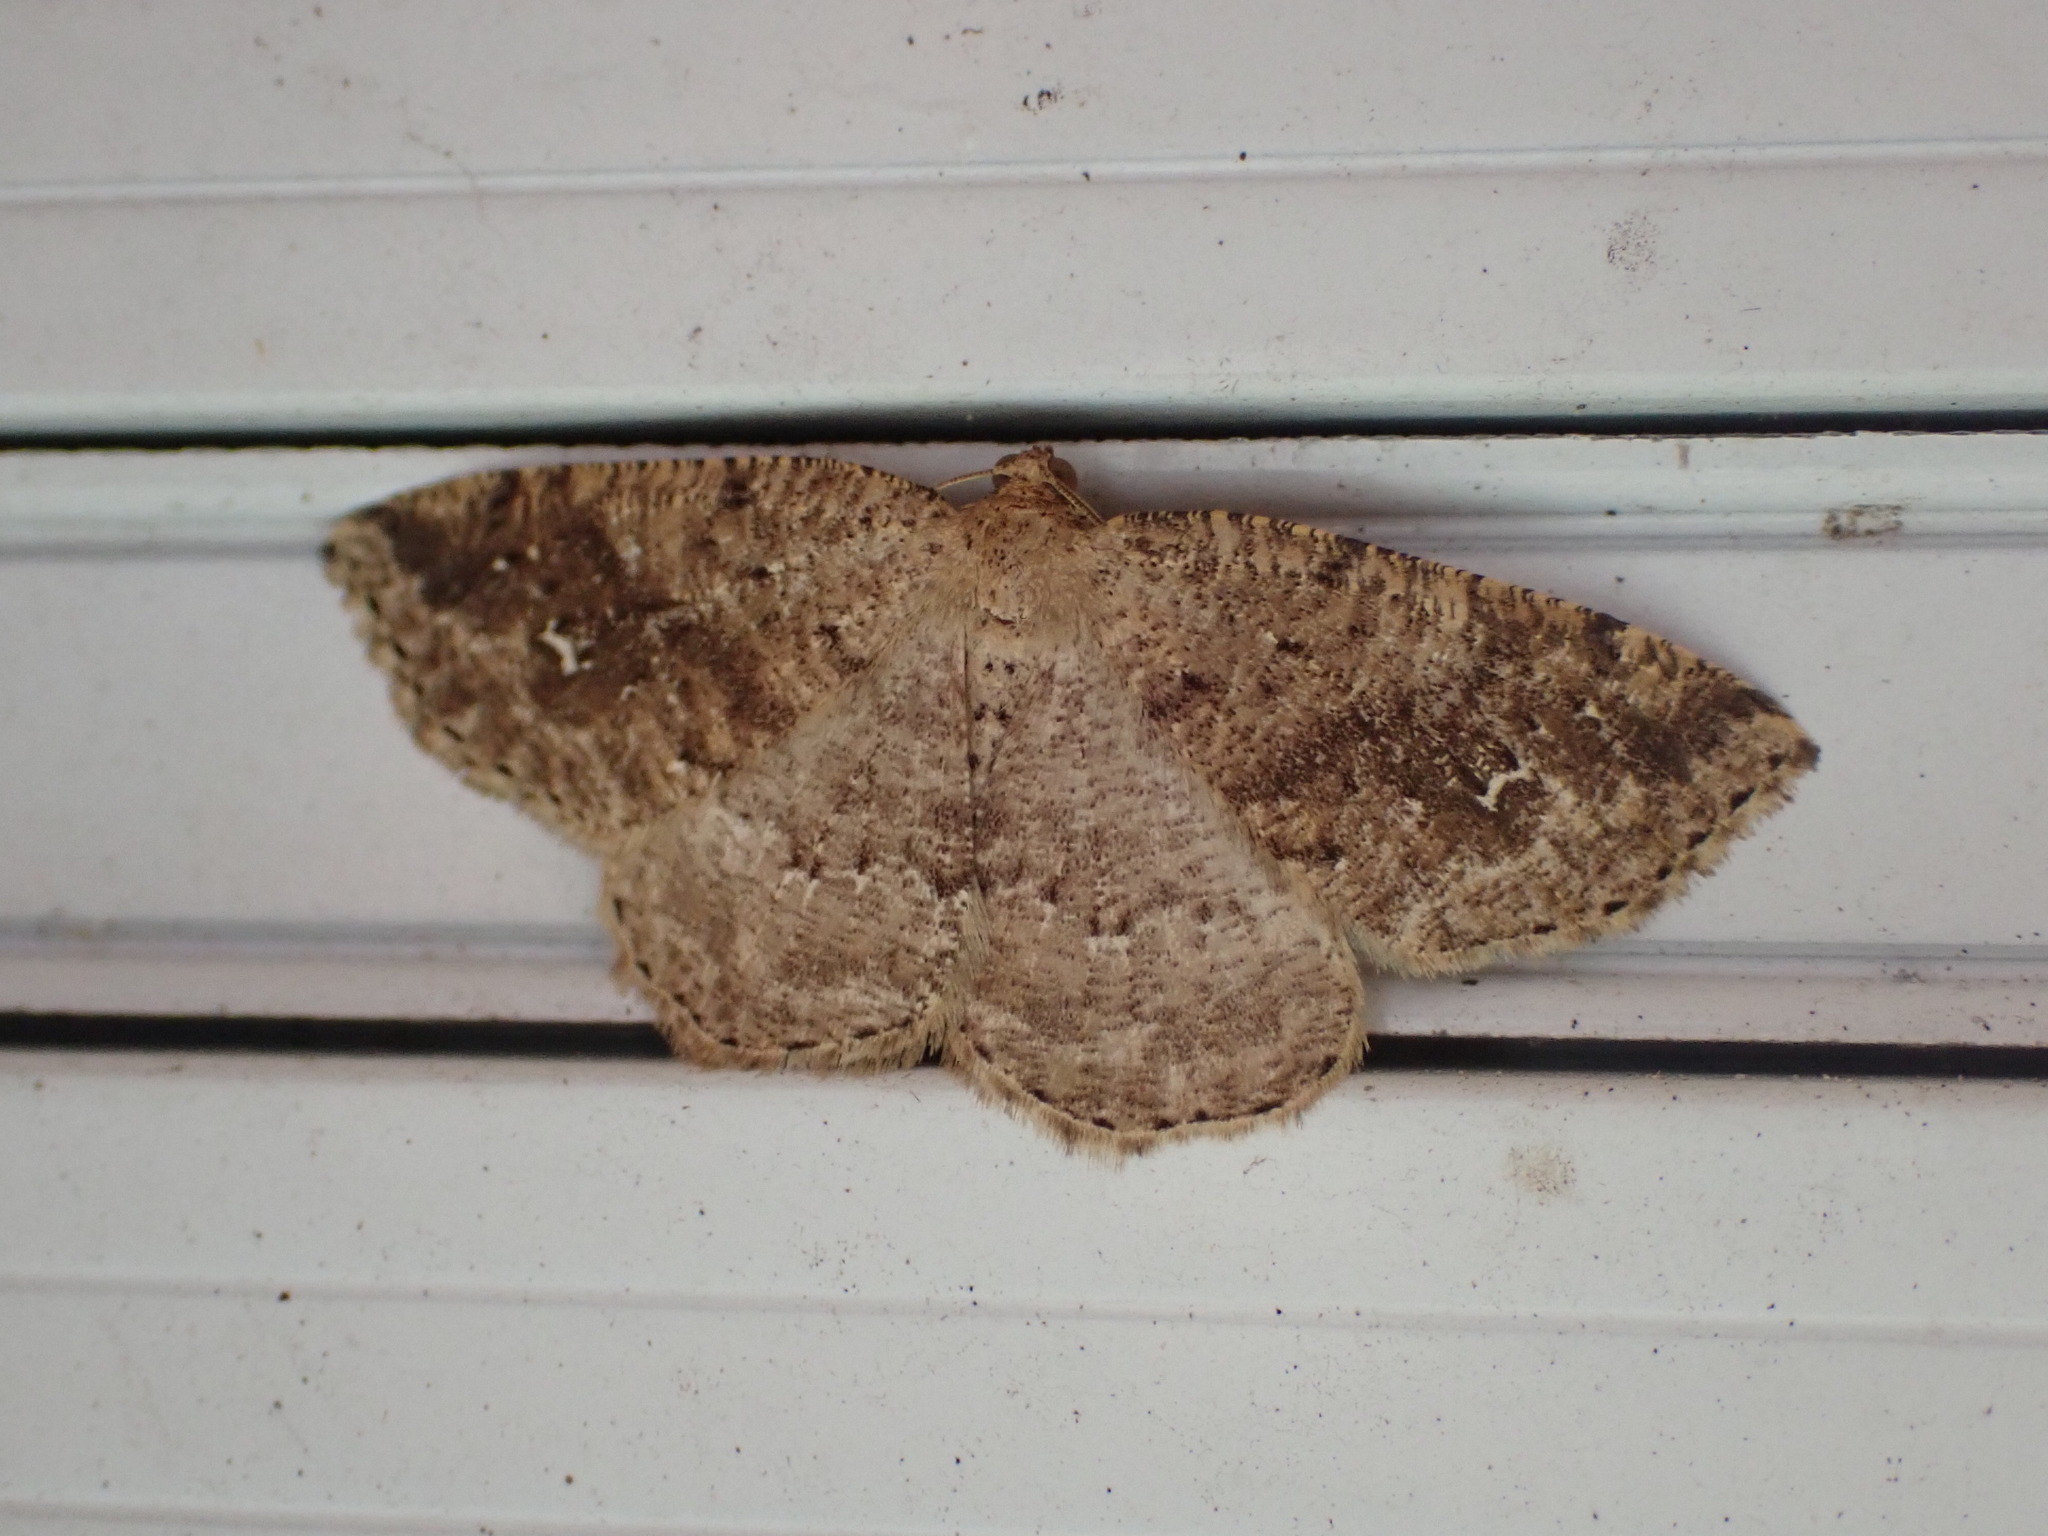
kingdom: Animalia
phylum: Arthropoda
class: Insecta
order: Lepidoptera
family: Geometridae
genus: Homochlodes
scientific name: Homochlodes fritillaria
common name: Pale homochlodes
